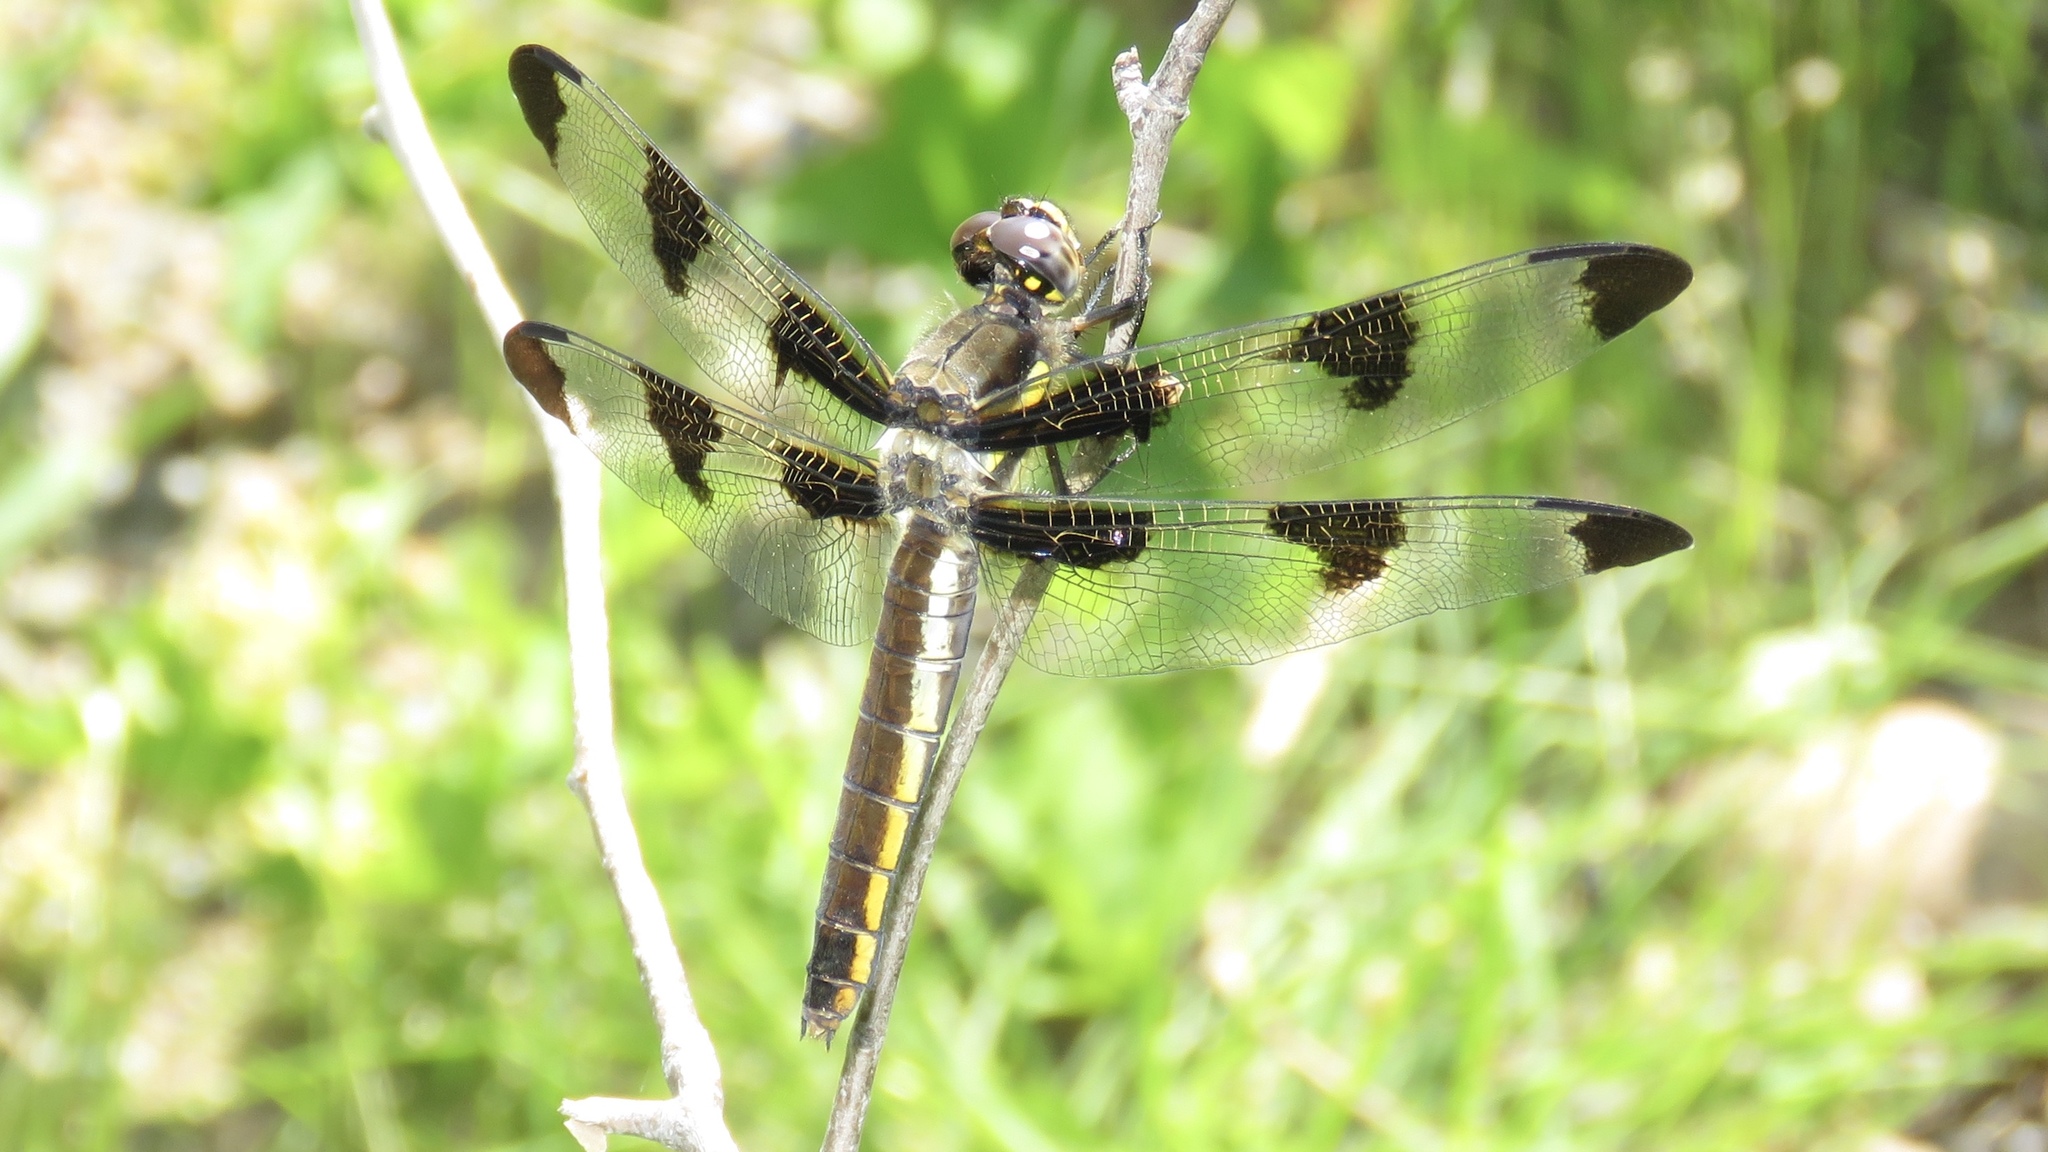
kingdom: Animalia
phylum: Arthropoda
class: Insecta
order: Odonata
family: Libellulidae
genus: Libellula
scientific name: Libellula pulchella
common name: Twelve-spotted skimmer
